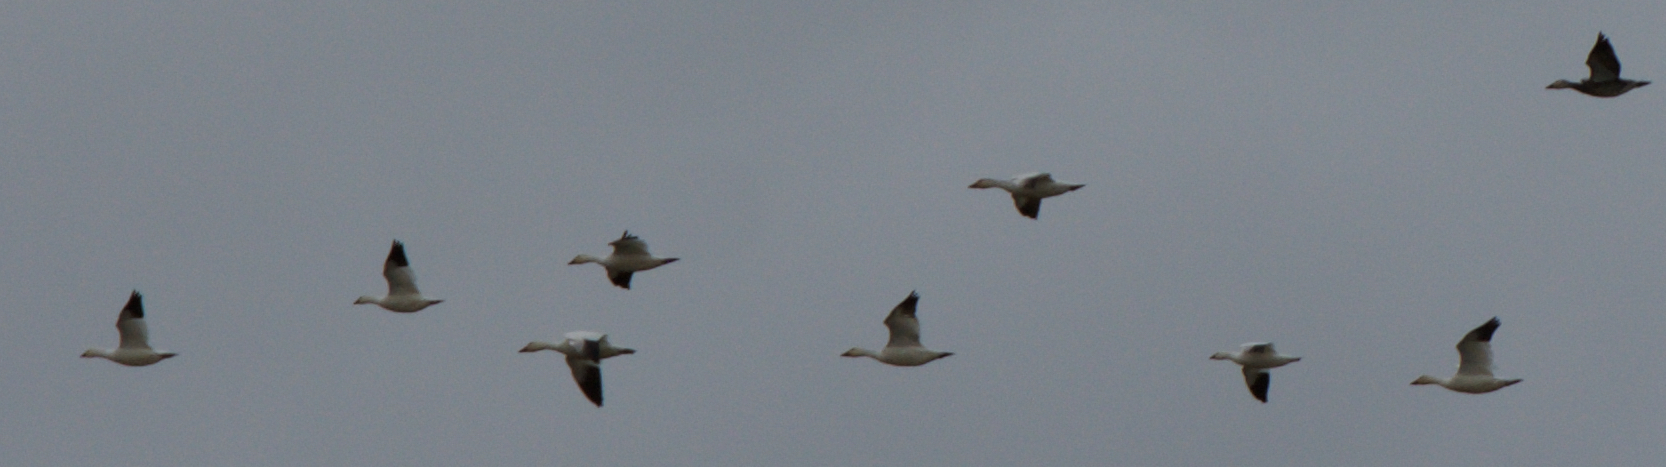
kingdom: Animalia
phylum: Chordata
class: Aves
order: Anseriformes
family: Anatidae
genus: Anser
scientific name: Anser caerulescens
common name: Snow goose
